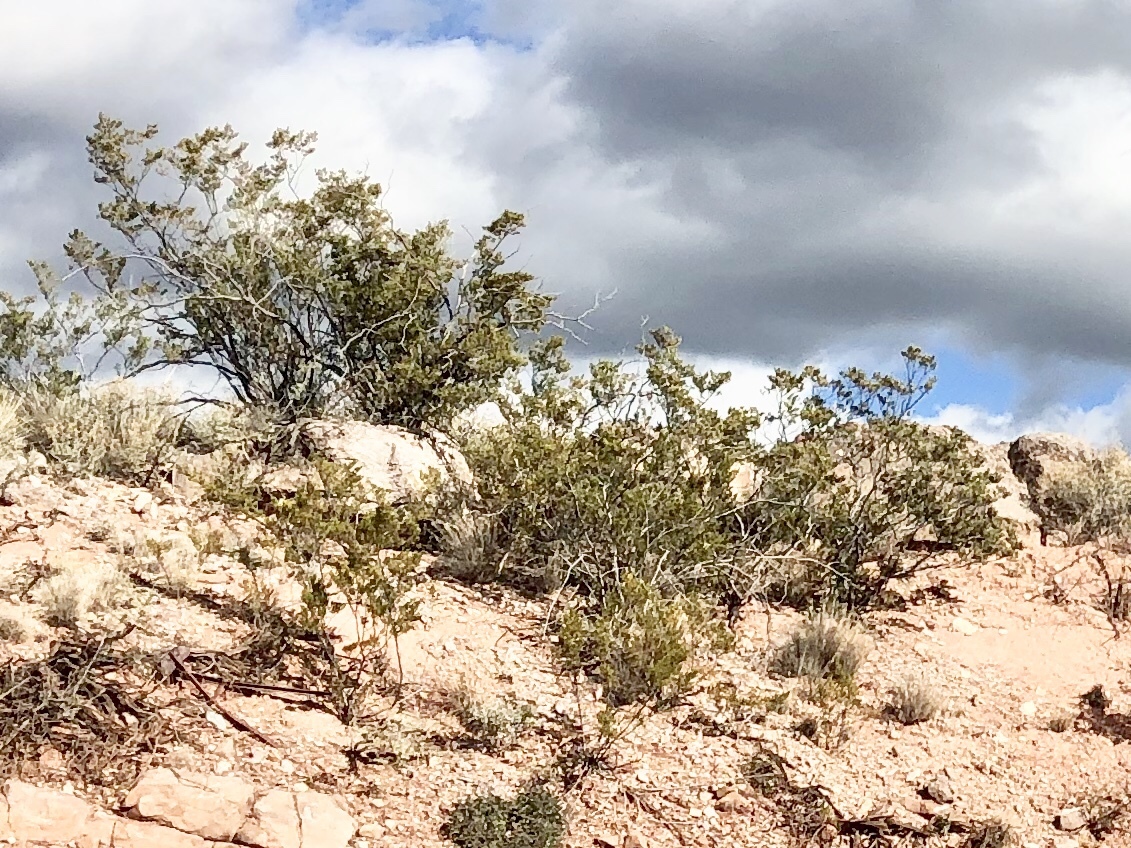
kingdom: Plantae
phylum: Tracheophyta
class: Magnoliopsida
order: Zygophyllales
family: Zygophyllaceae
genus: Larrea
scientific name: Larrea tridentata
